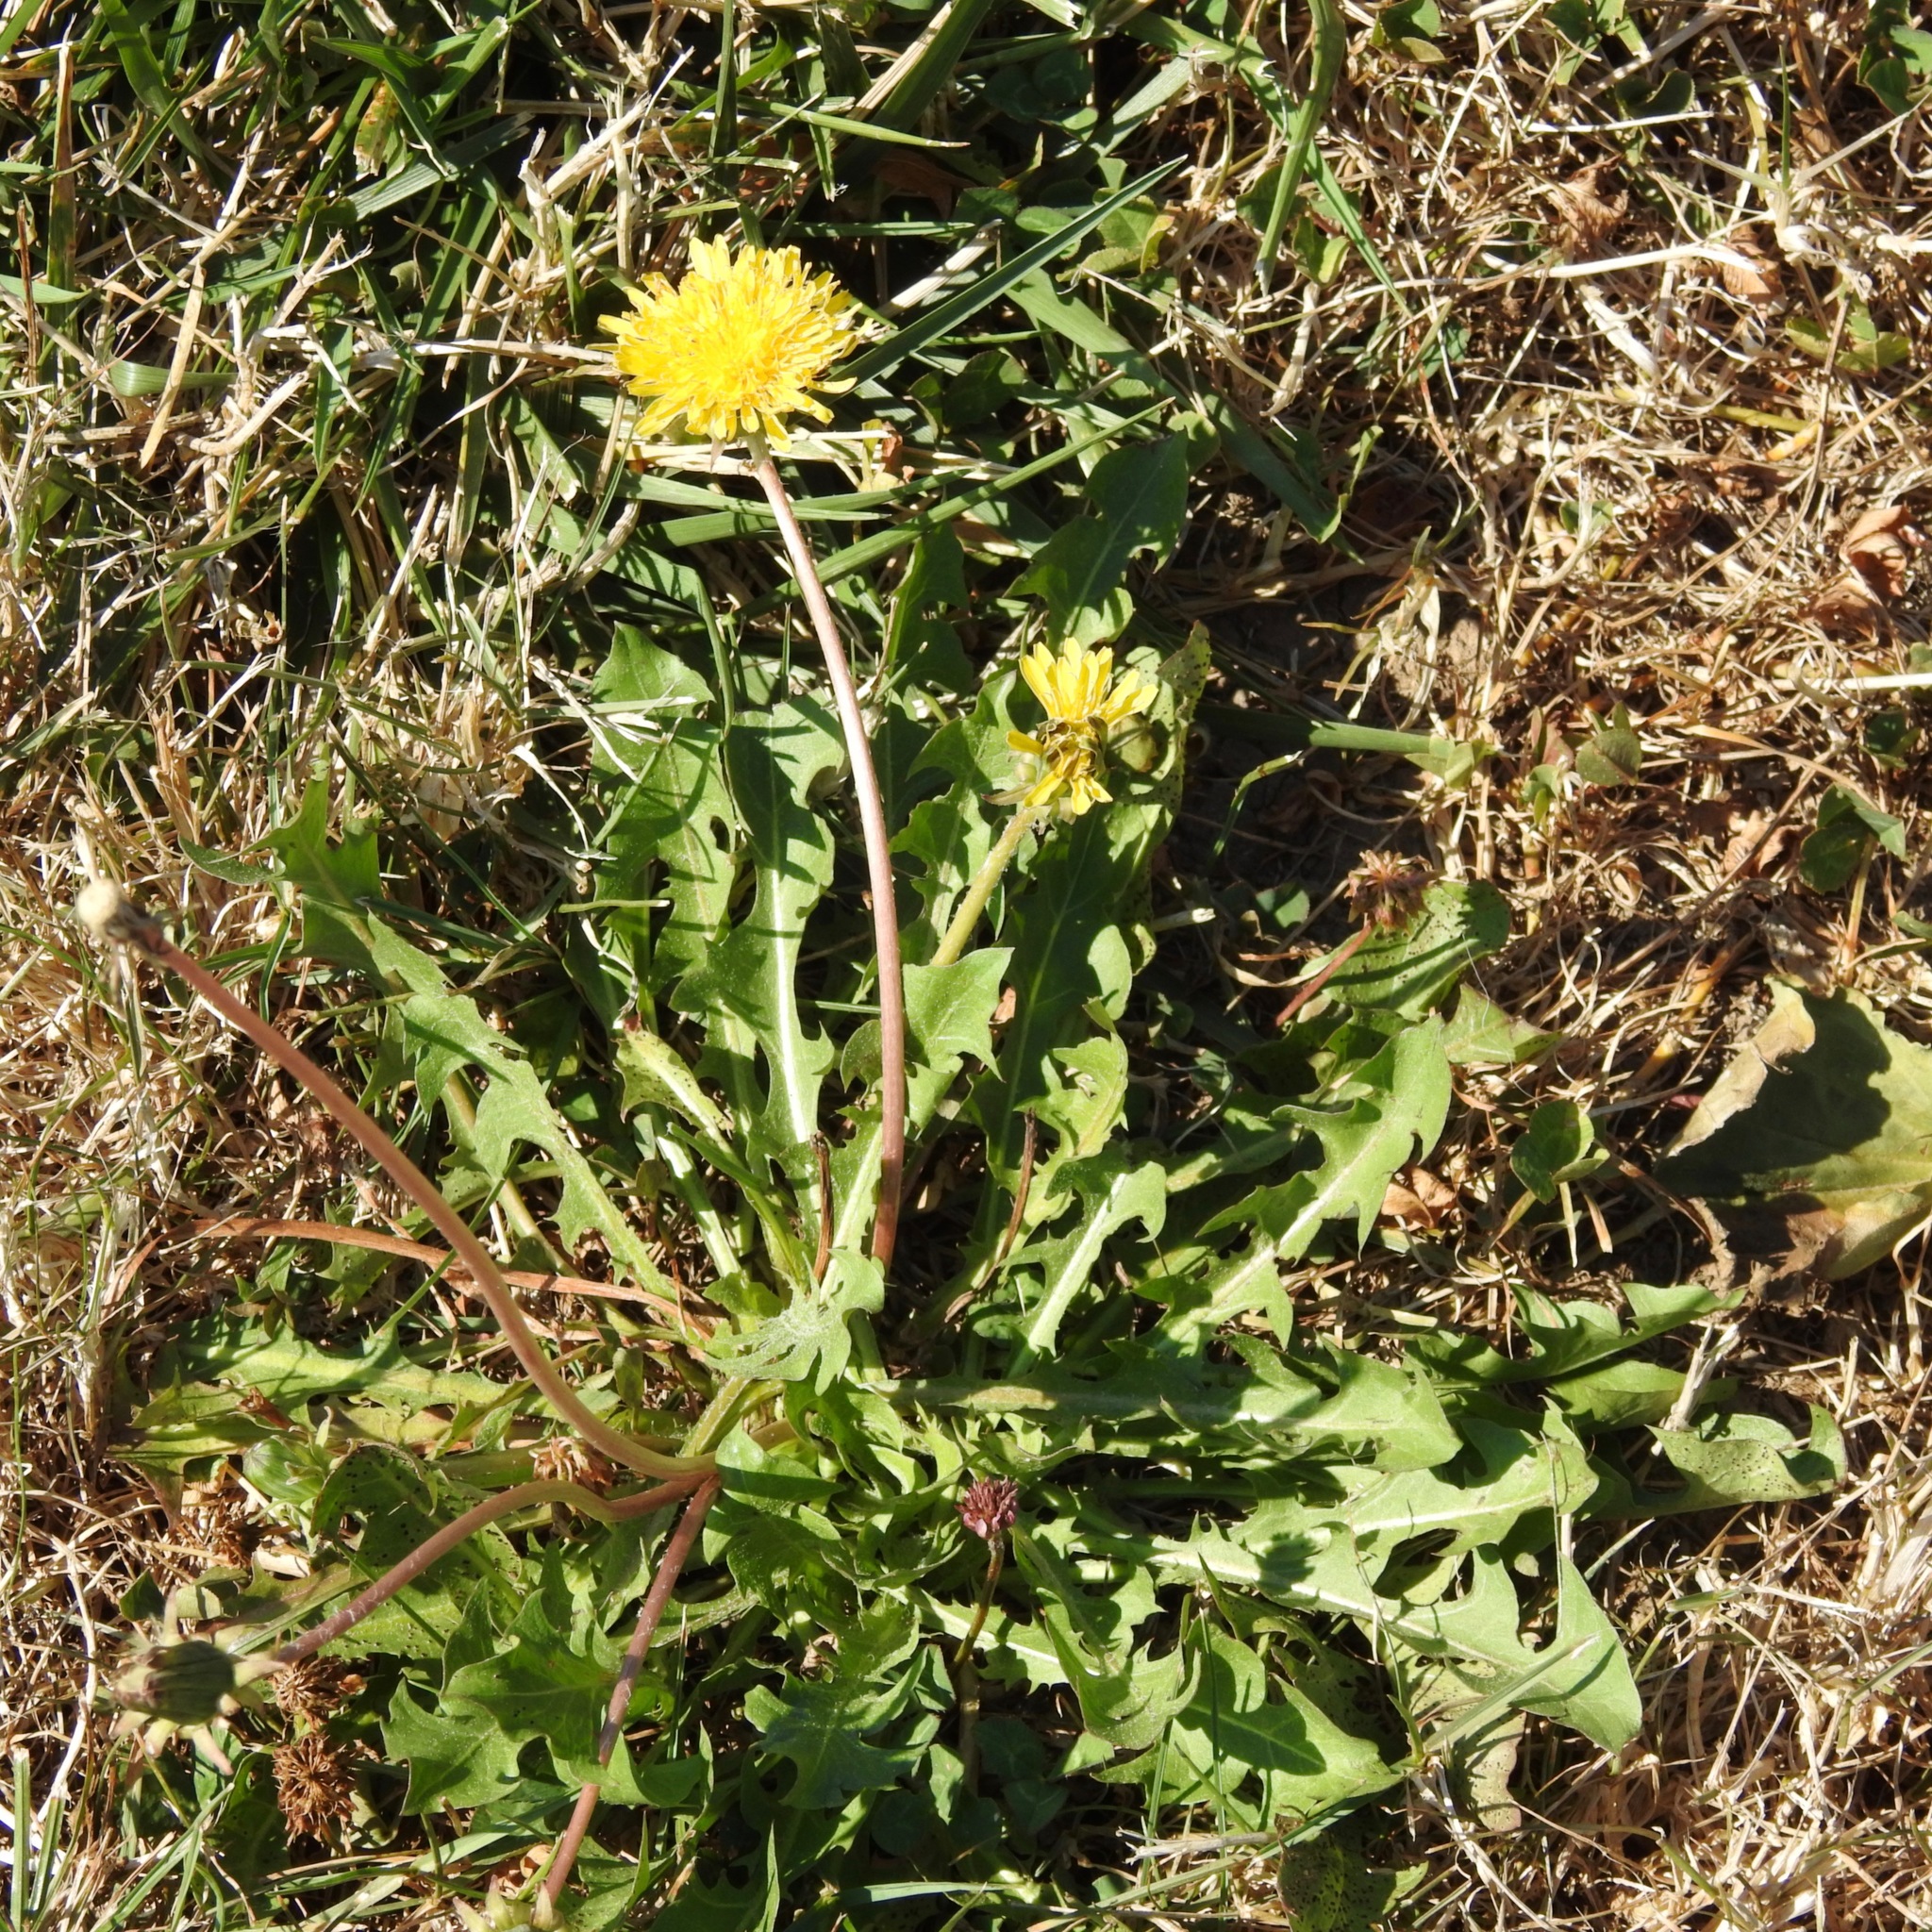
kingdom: Plantae
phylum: Tracheophyta
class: Magnoliopsida
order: Asterales
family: Asteraceae
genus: Taraxacum
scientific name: Taraxacum officinale
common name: Common dandelion
